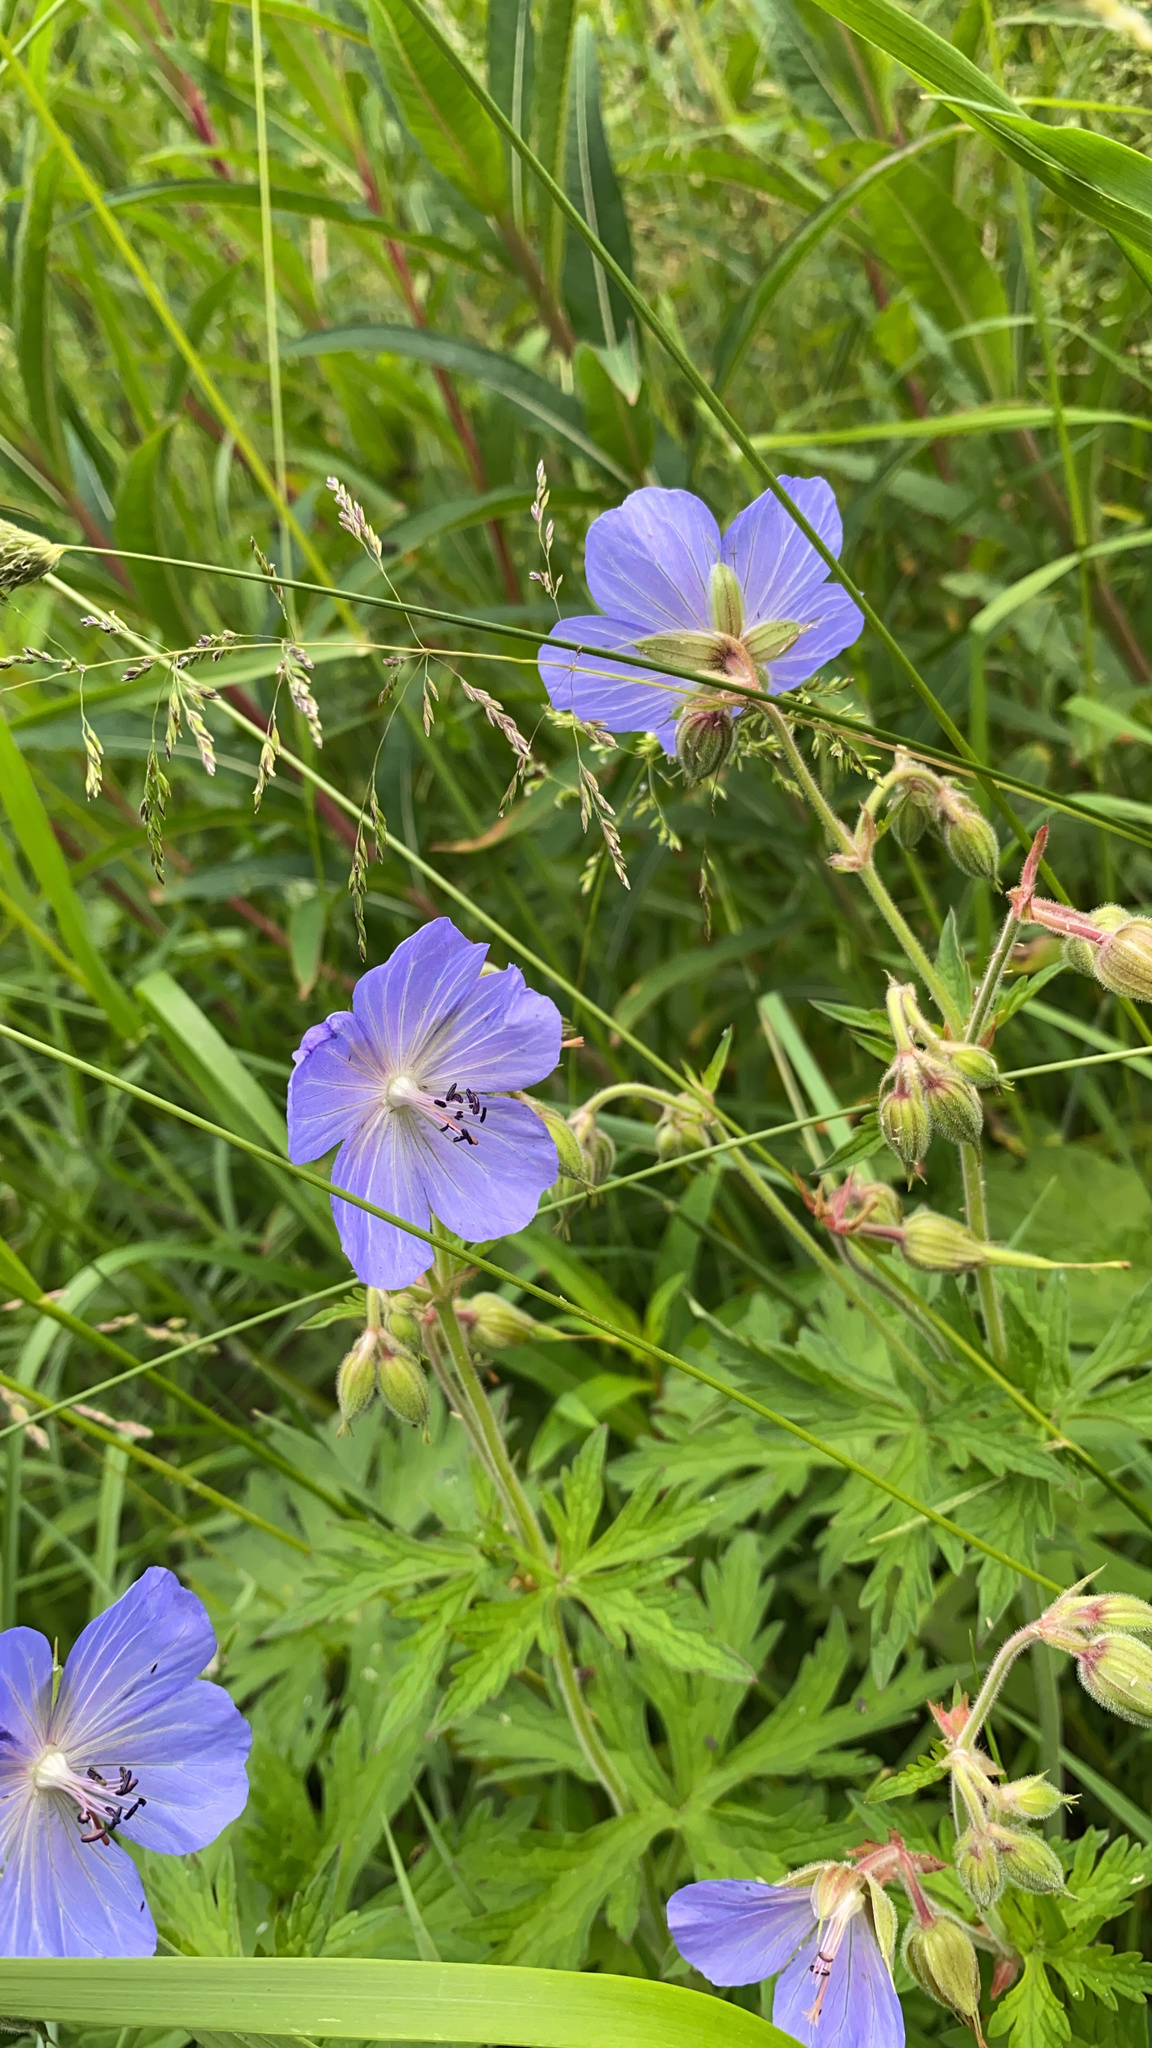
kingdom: Plantae
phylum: Tracheophyta
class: Magnoliopsida
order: Geraniales
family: Geraniaceae
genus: Geranium
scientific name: Geranium pratense
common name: Meadow crane's-bill
